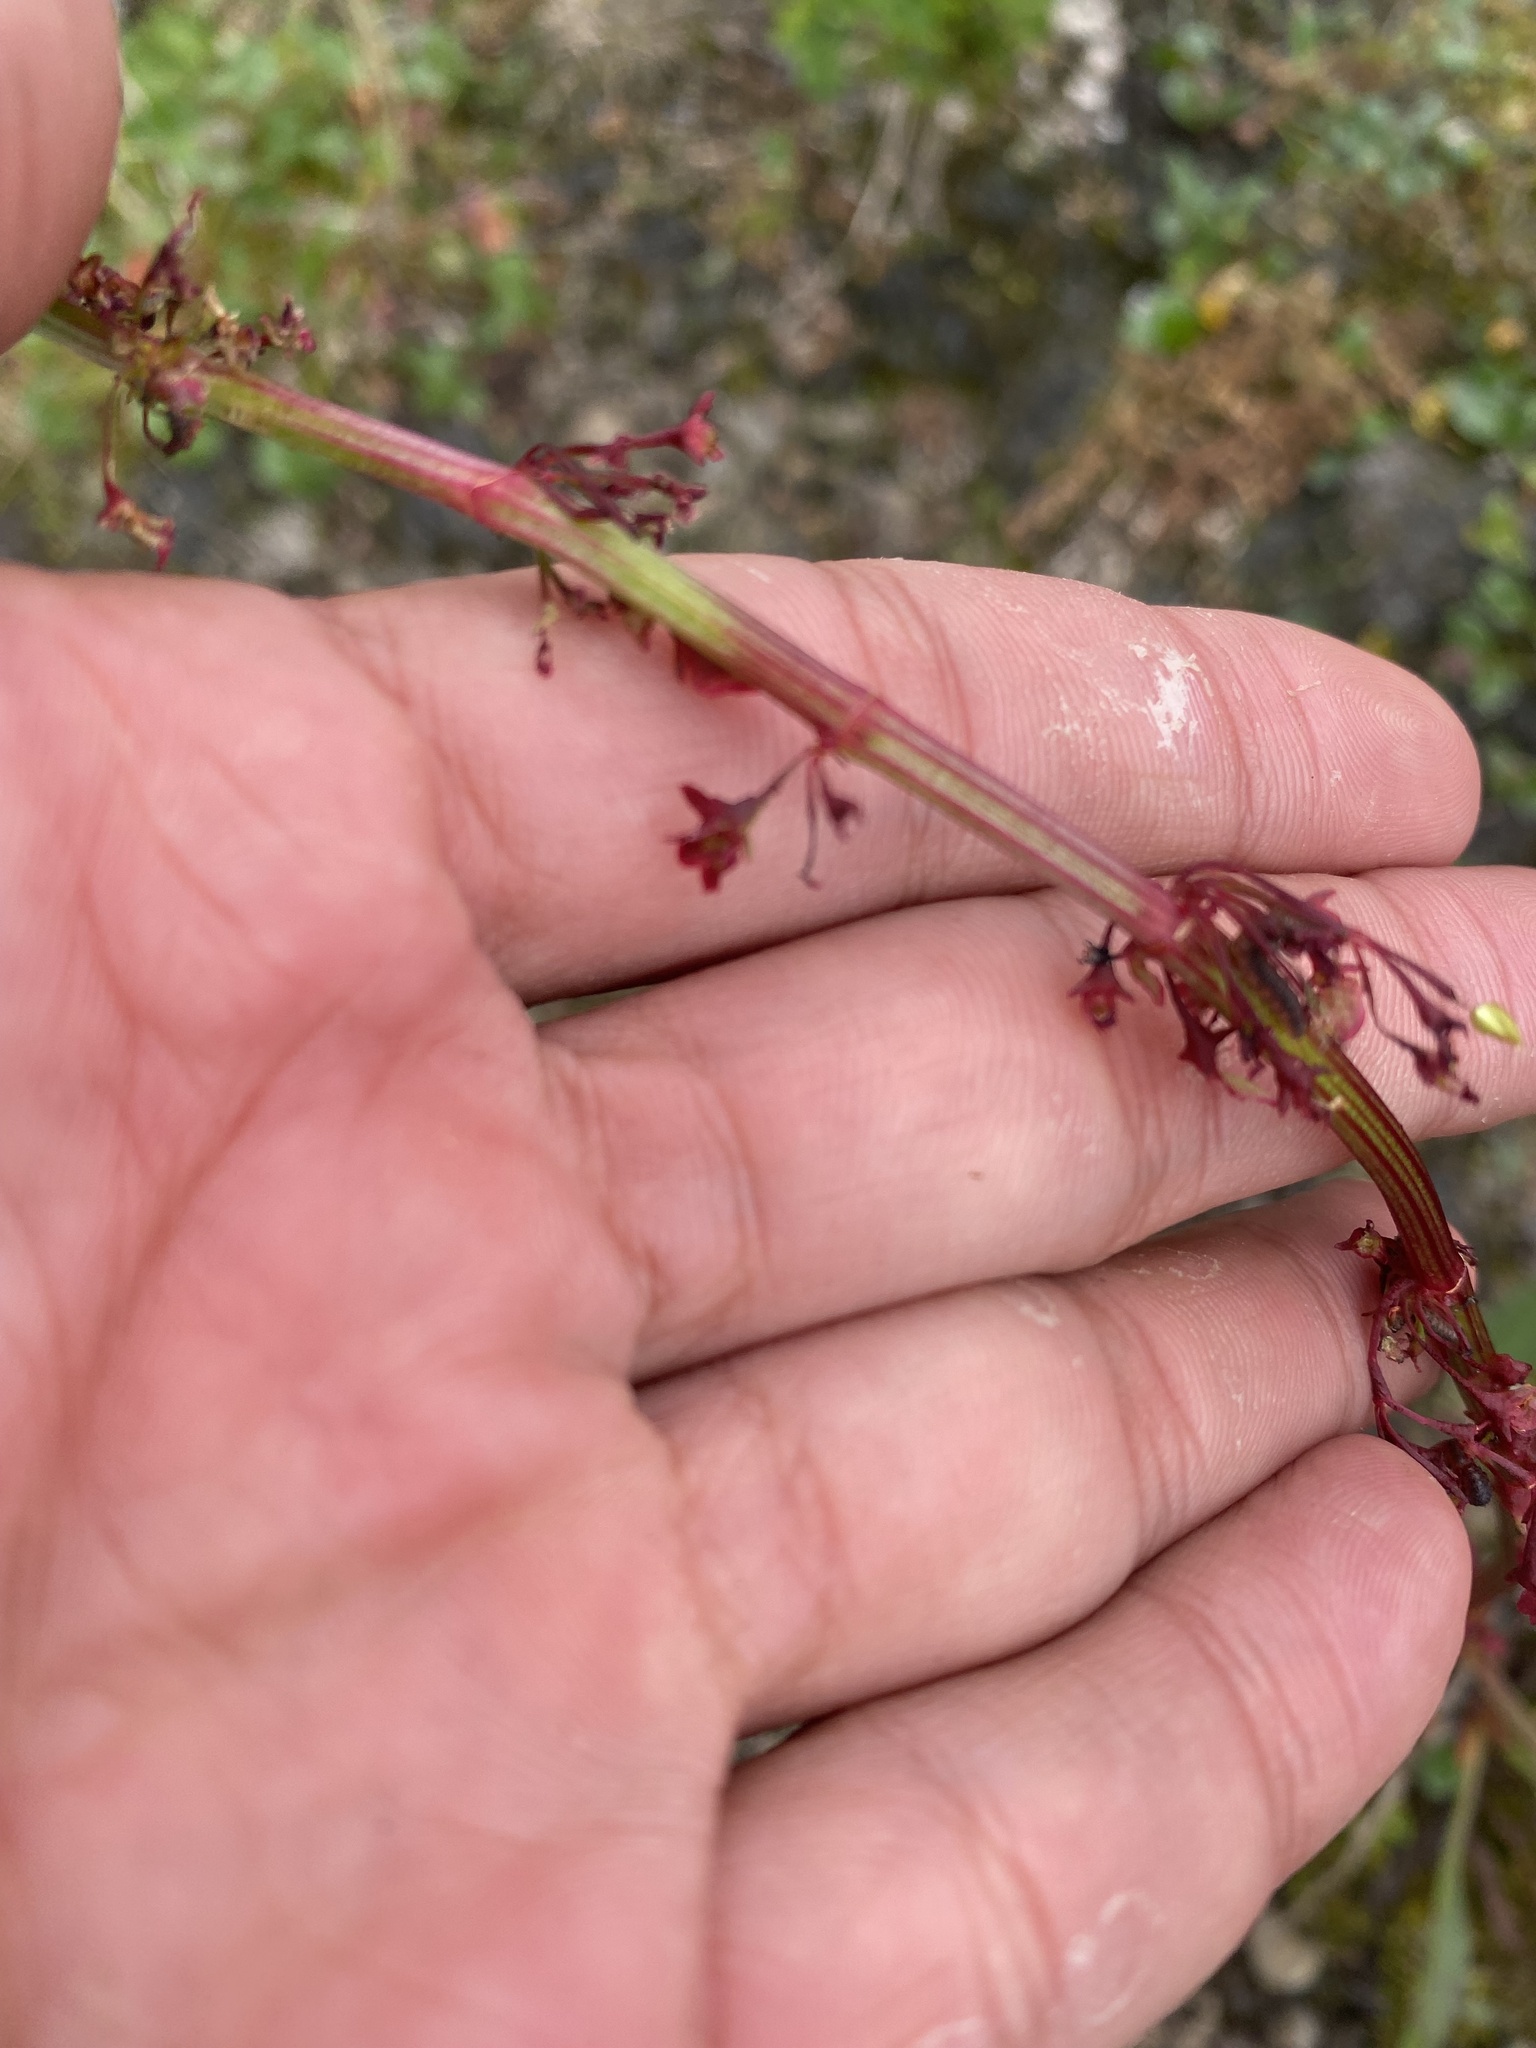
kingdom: Plantae
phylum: Tracheophyta
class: Magnoliopsida
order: Caryophyllales
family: Polygonaceae
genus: Rumex
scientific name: Rumex arcticus
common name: Arctic dock
